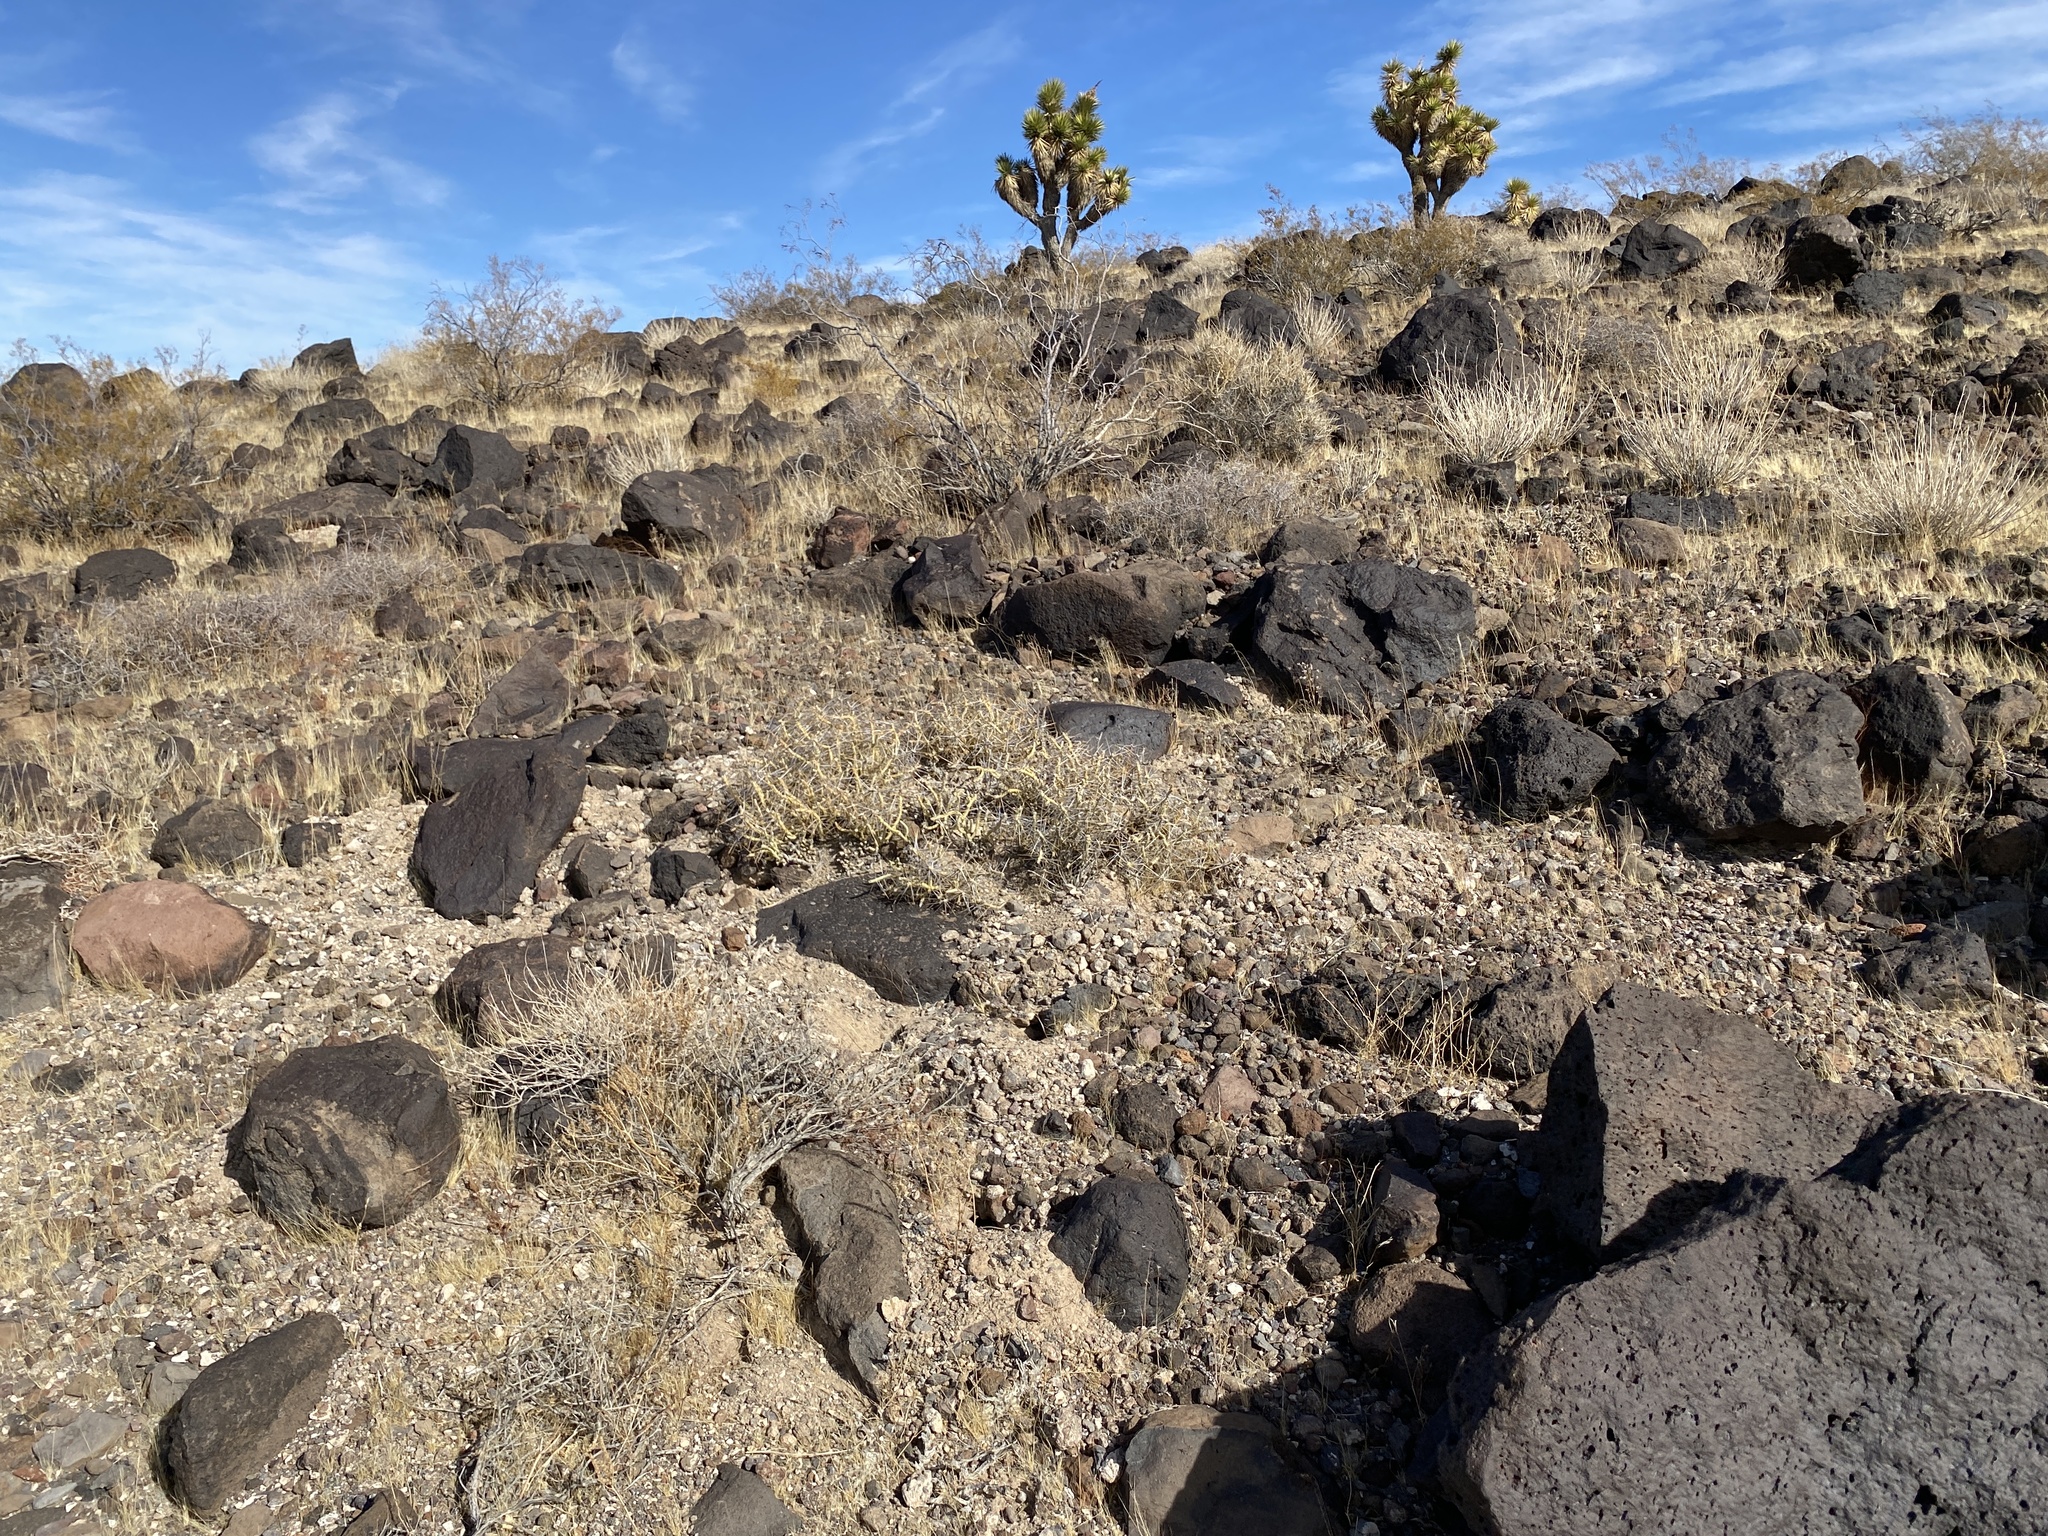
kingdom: Plantae
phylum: Tracheophyta
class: Magnoliopsida
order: Caryophyllales
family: Cactaceae
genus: Cylindropuntia
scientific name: Cylindropuntia ramosissima
